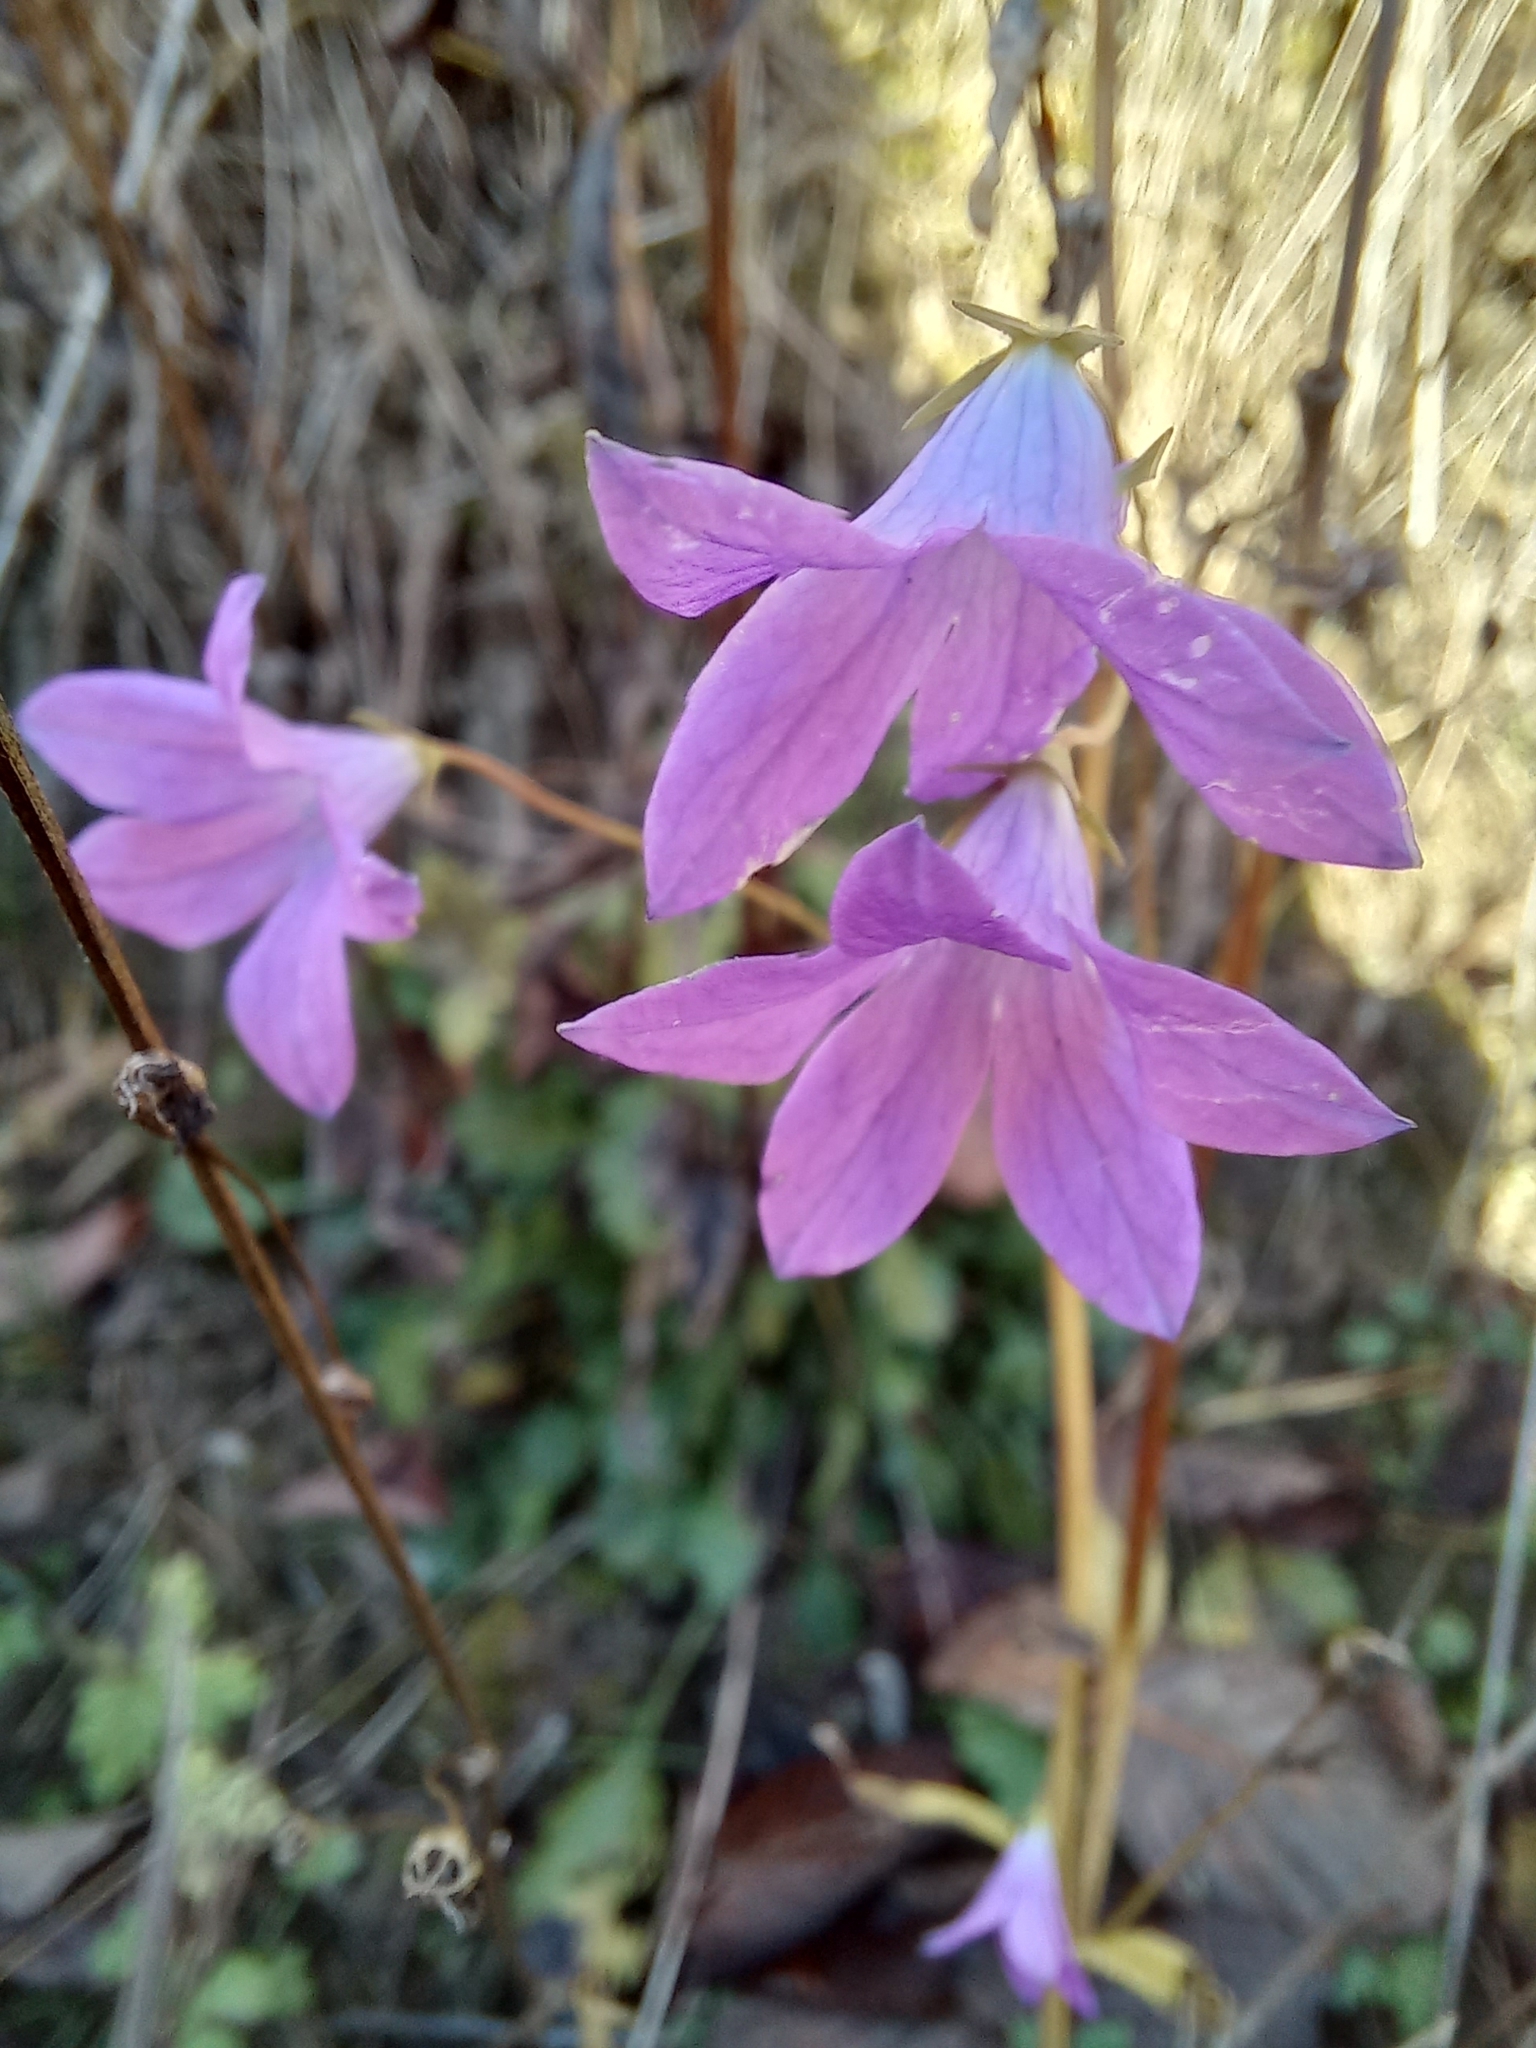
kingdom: Plantae
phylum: Tracheophyta
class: Magnoliopsida
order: Asterales
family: Campanulaceae
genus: Campanula
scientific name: Campanula patula
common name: Spreading bellflower
